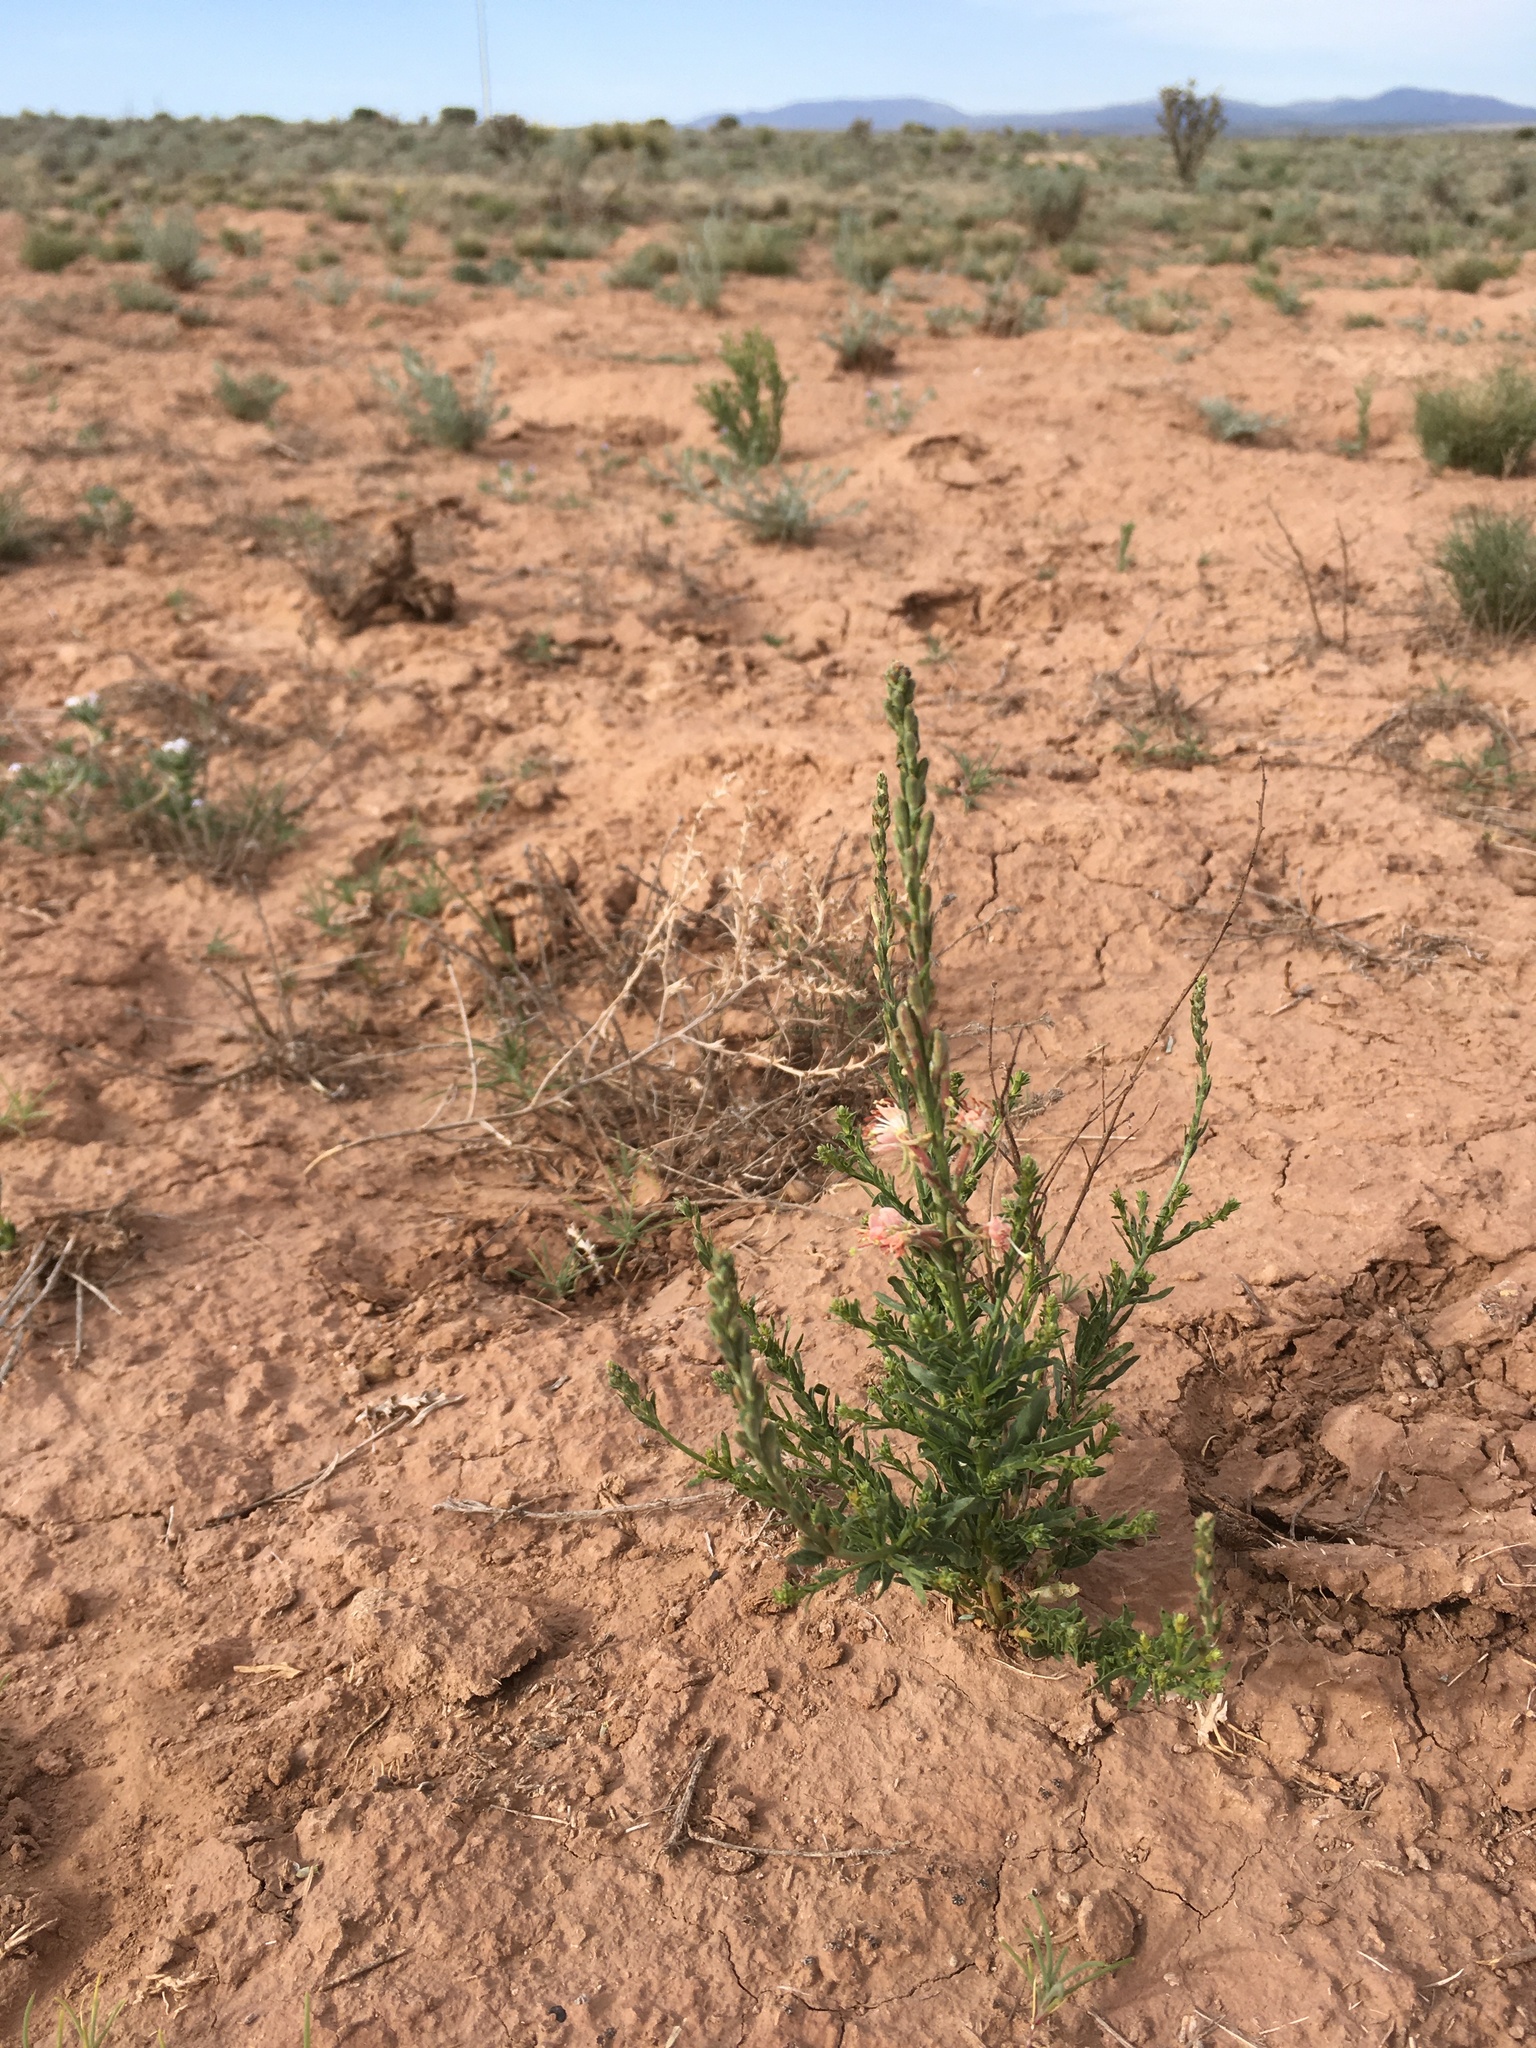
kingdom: Plantae
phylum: Tracheophyta
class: Magnoliopsida
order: Myrtales
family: Onagraceae
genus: Oenothera
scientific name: Oenothera suffrutescens
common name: Scarlet beeblossom
